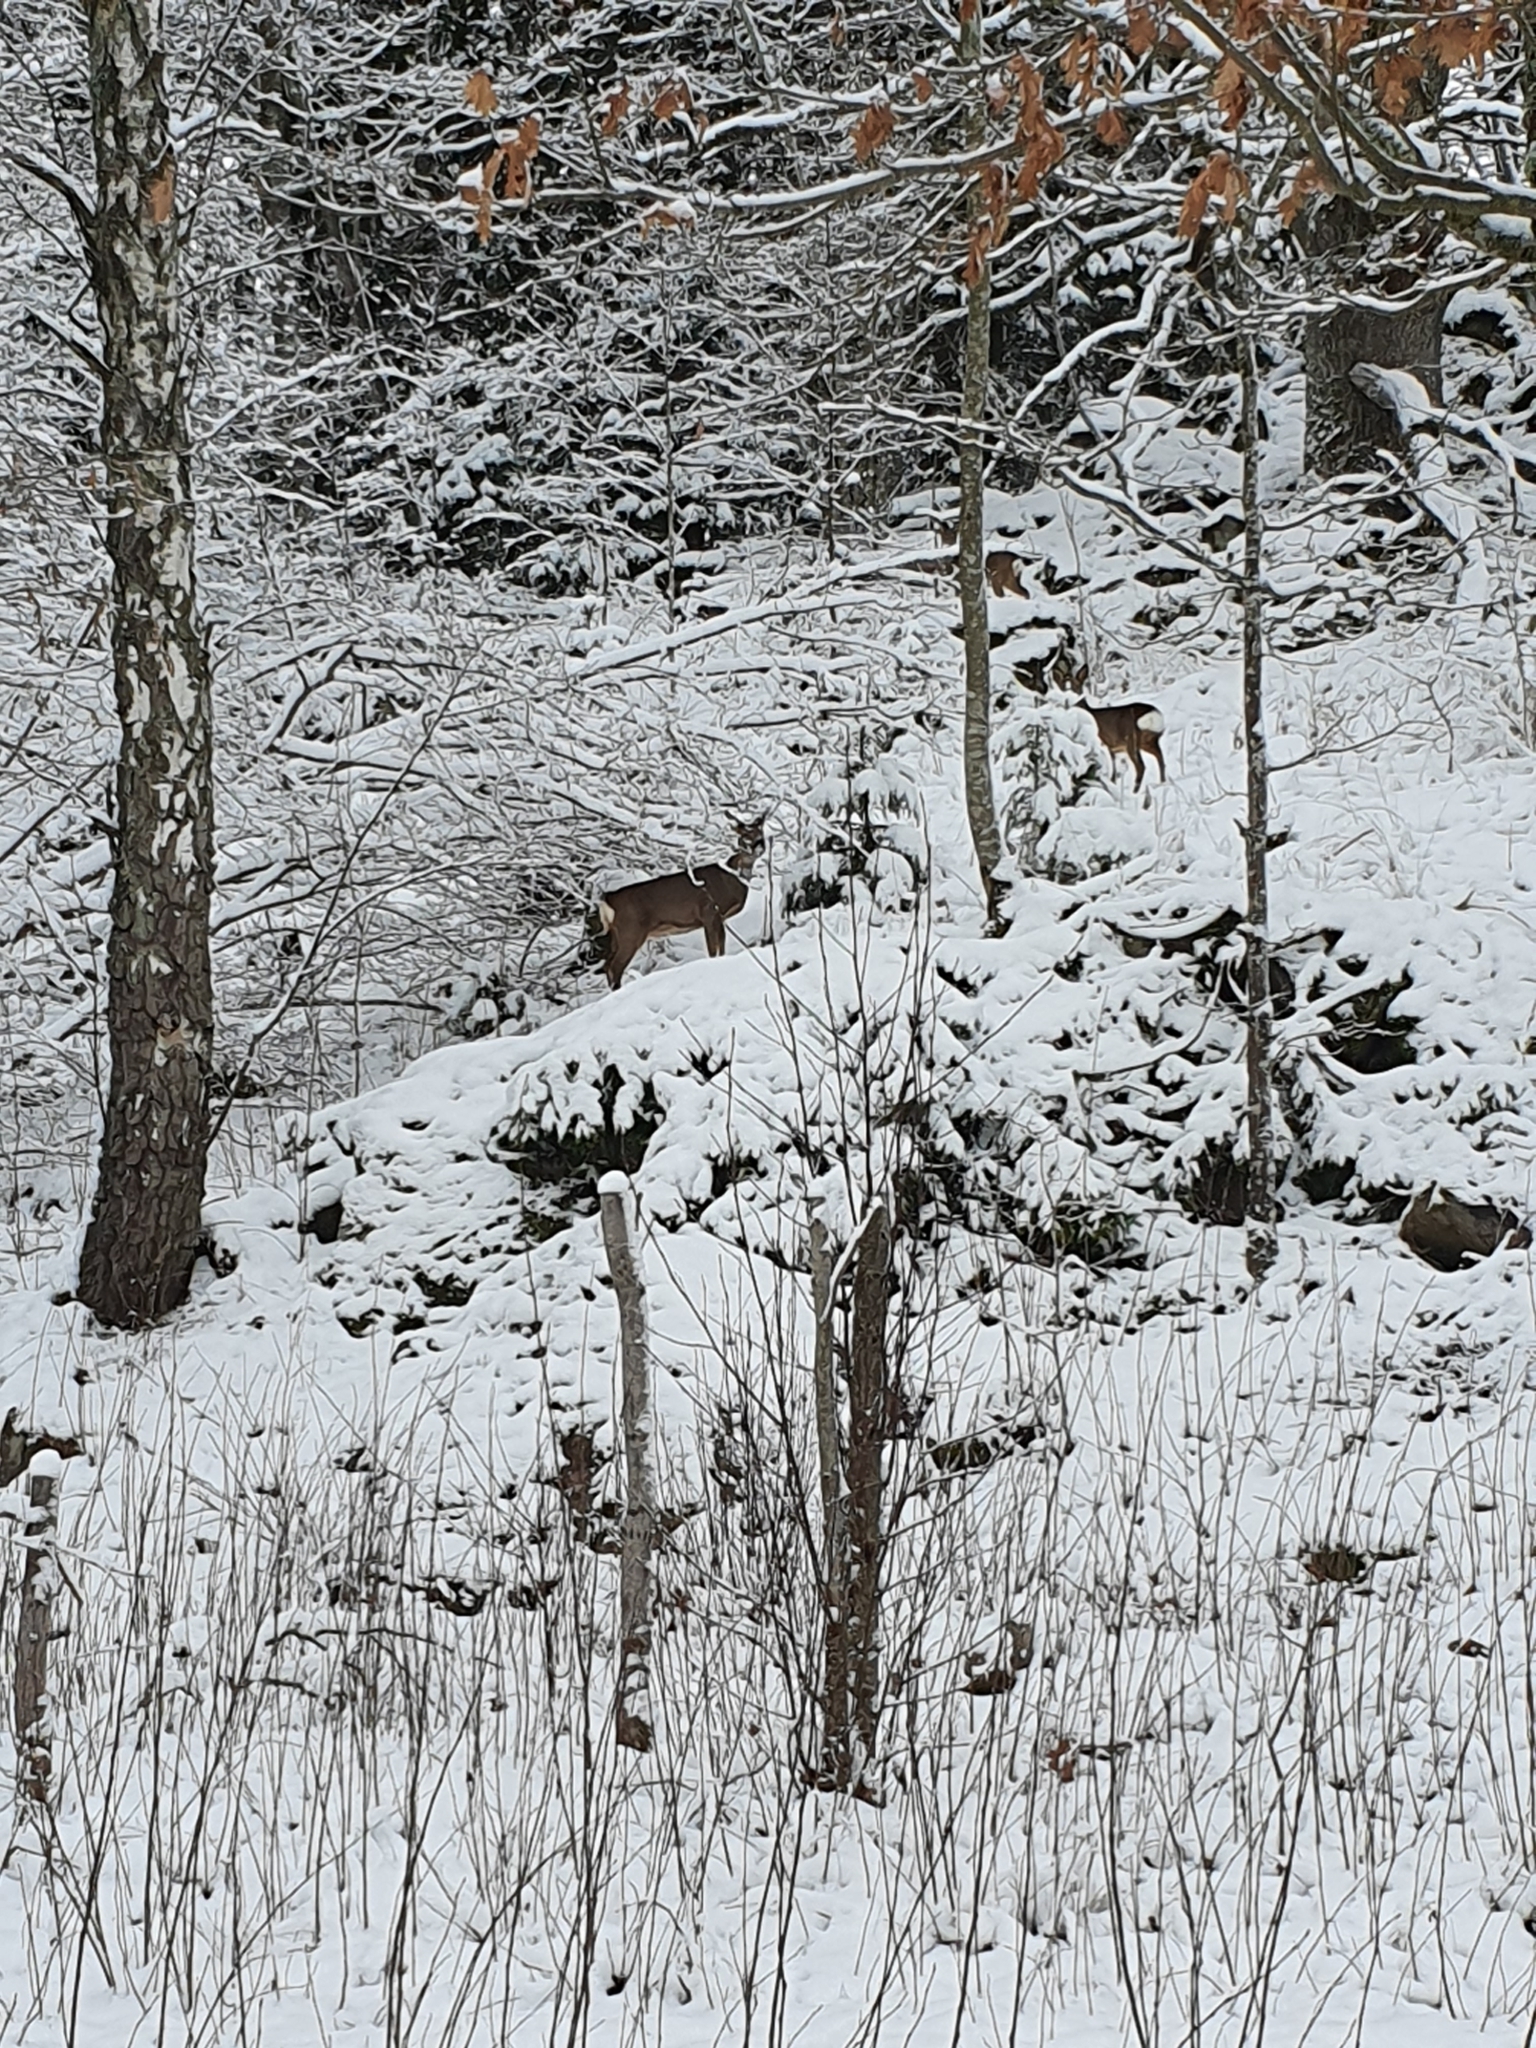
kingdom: Animalia
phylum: Chordata
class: Mammalia
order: Artiodactyla
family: Cervidae
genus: Capreolus
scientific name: Capreolus capreolus
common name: Western roe deer
